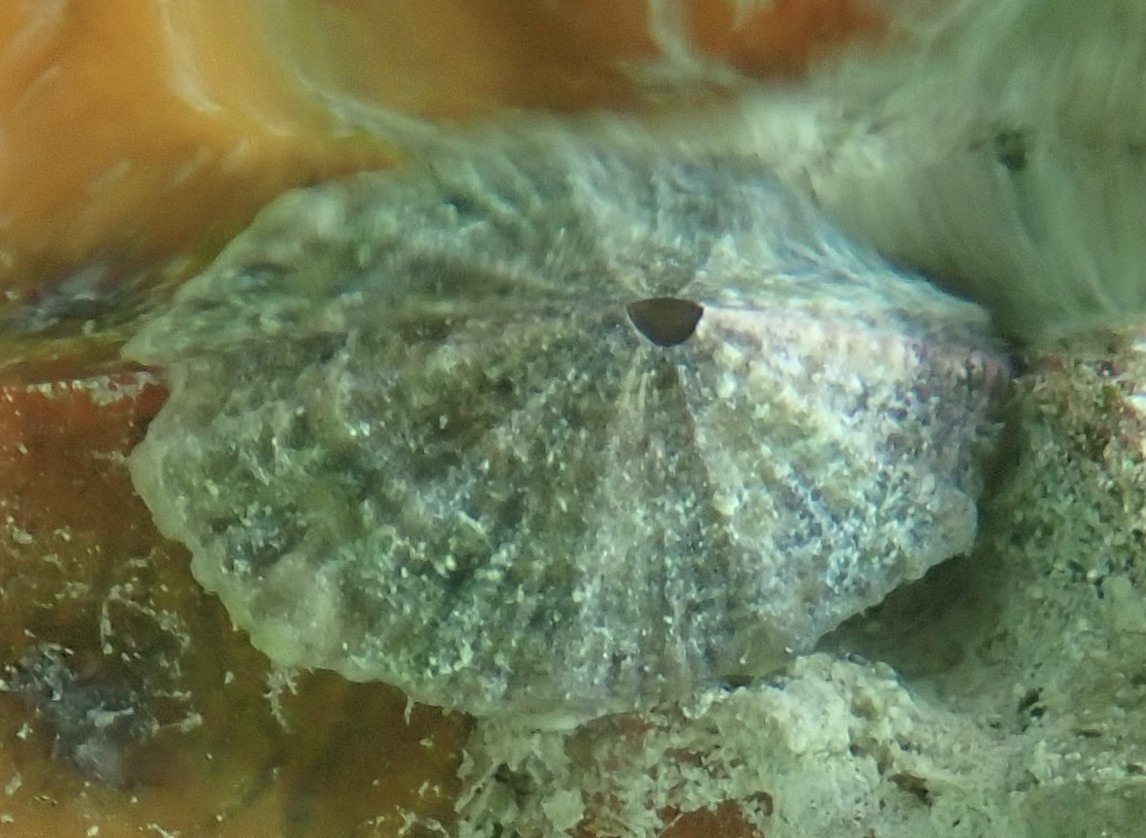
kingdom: Animalia
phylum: Mollusca
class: Gastropoda
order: Lepetellida
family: Fissurellidae
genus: Fissurella
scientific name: Fissurella barbadensis
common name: Barbados keyhole limpet
